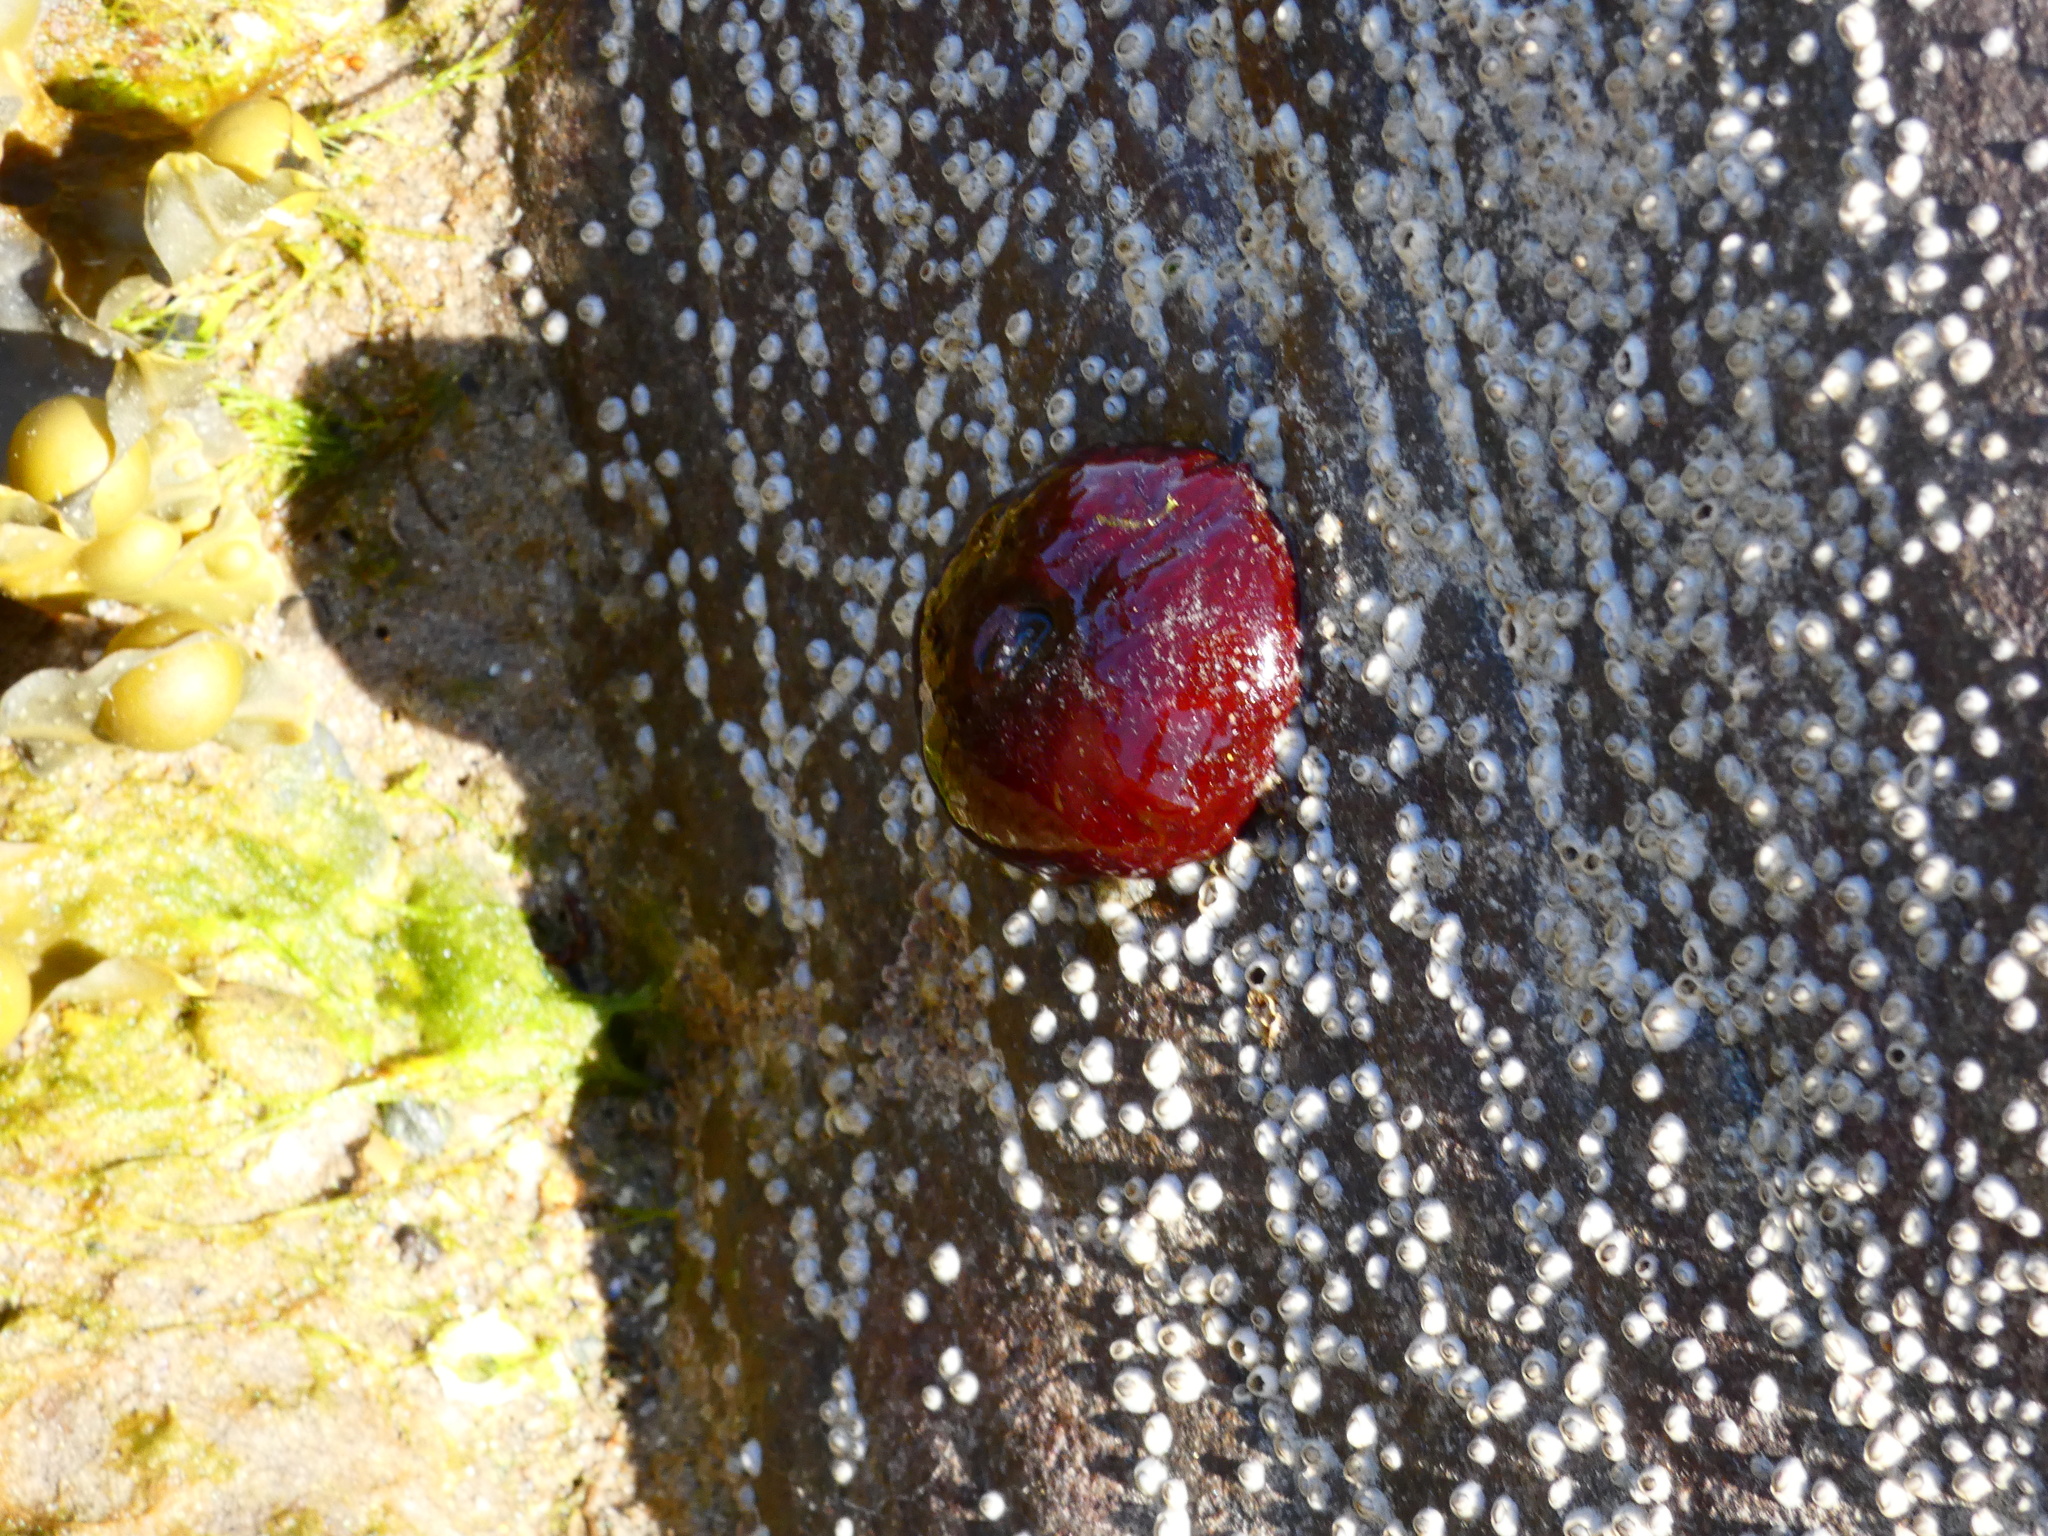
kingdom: Animalia
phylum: Cnidaria
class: Anthozoa
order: Actiniaria
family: Actiniidae
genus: Actinia
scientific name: Actinia equina
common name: Beadlet anemone
